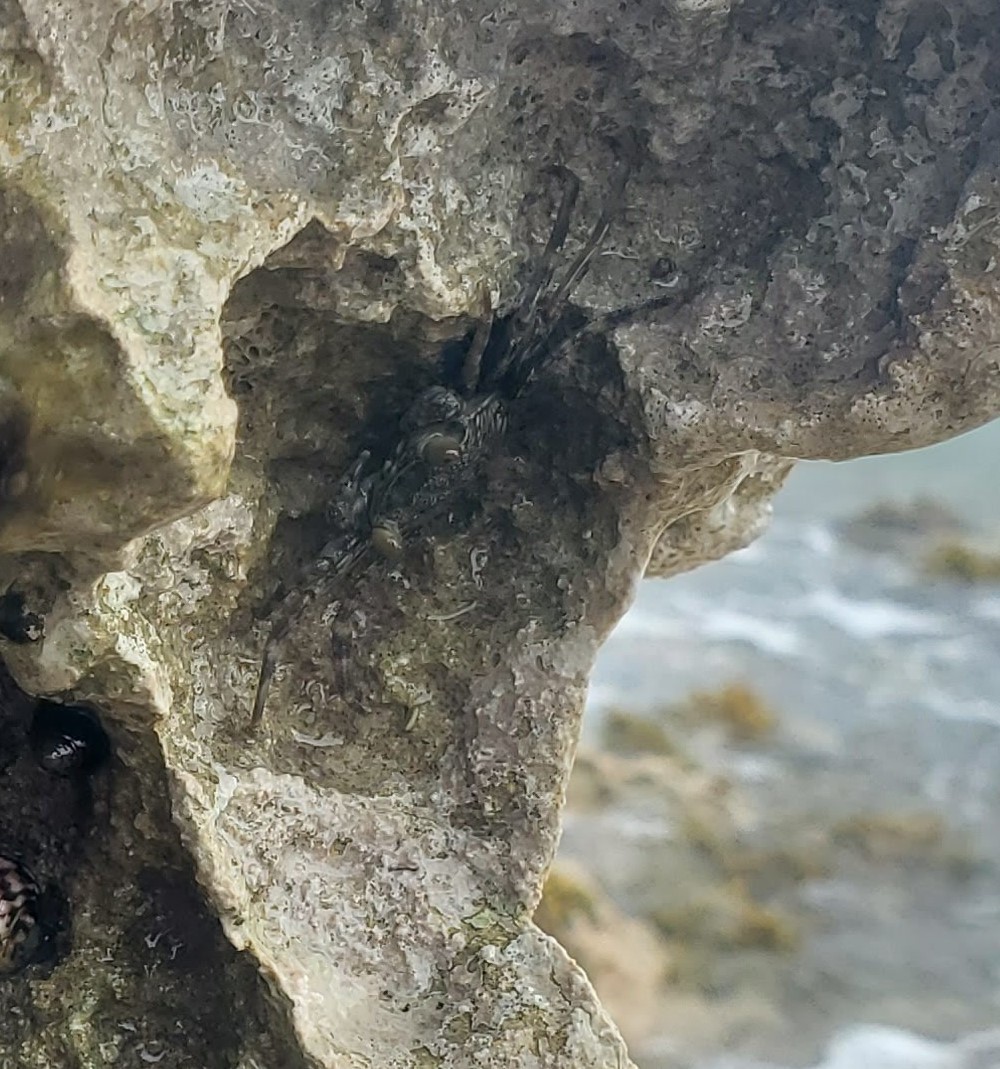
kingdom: Animalia
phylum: Arthropoda
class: Malacostraca
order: Decapoda
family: Grapsidae
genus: Grapsus
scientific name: Grapsus grapsus
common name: Sally lightfoot
